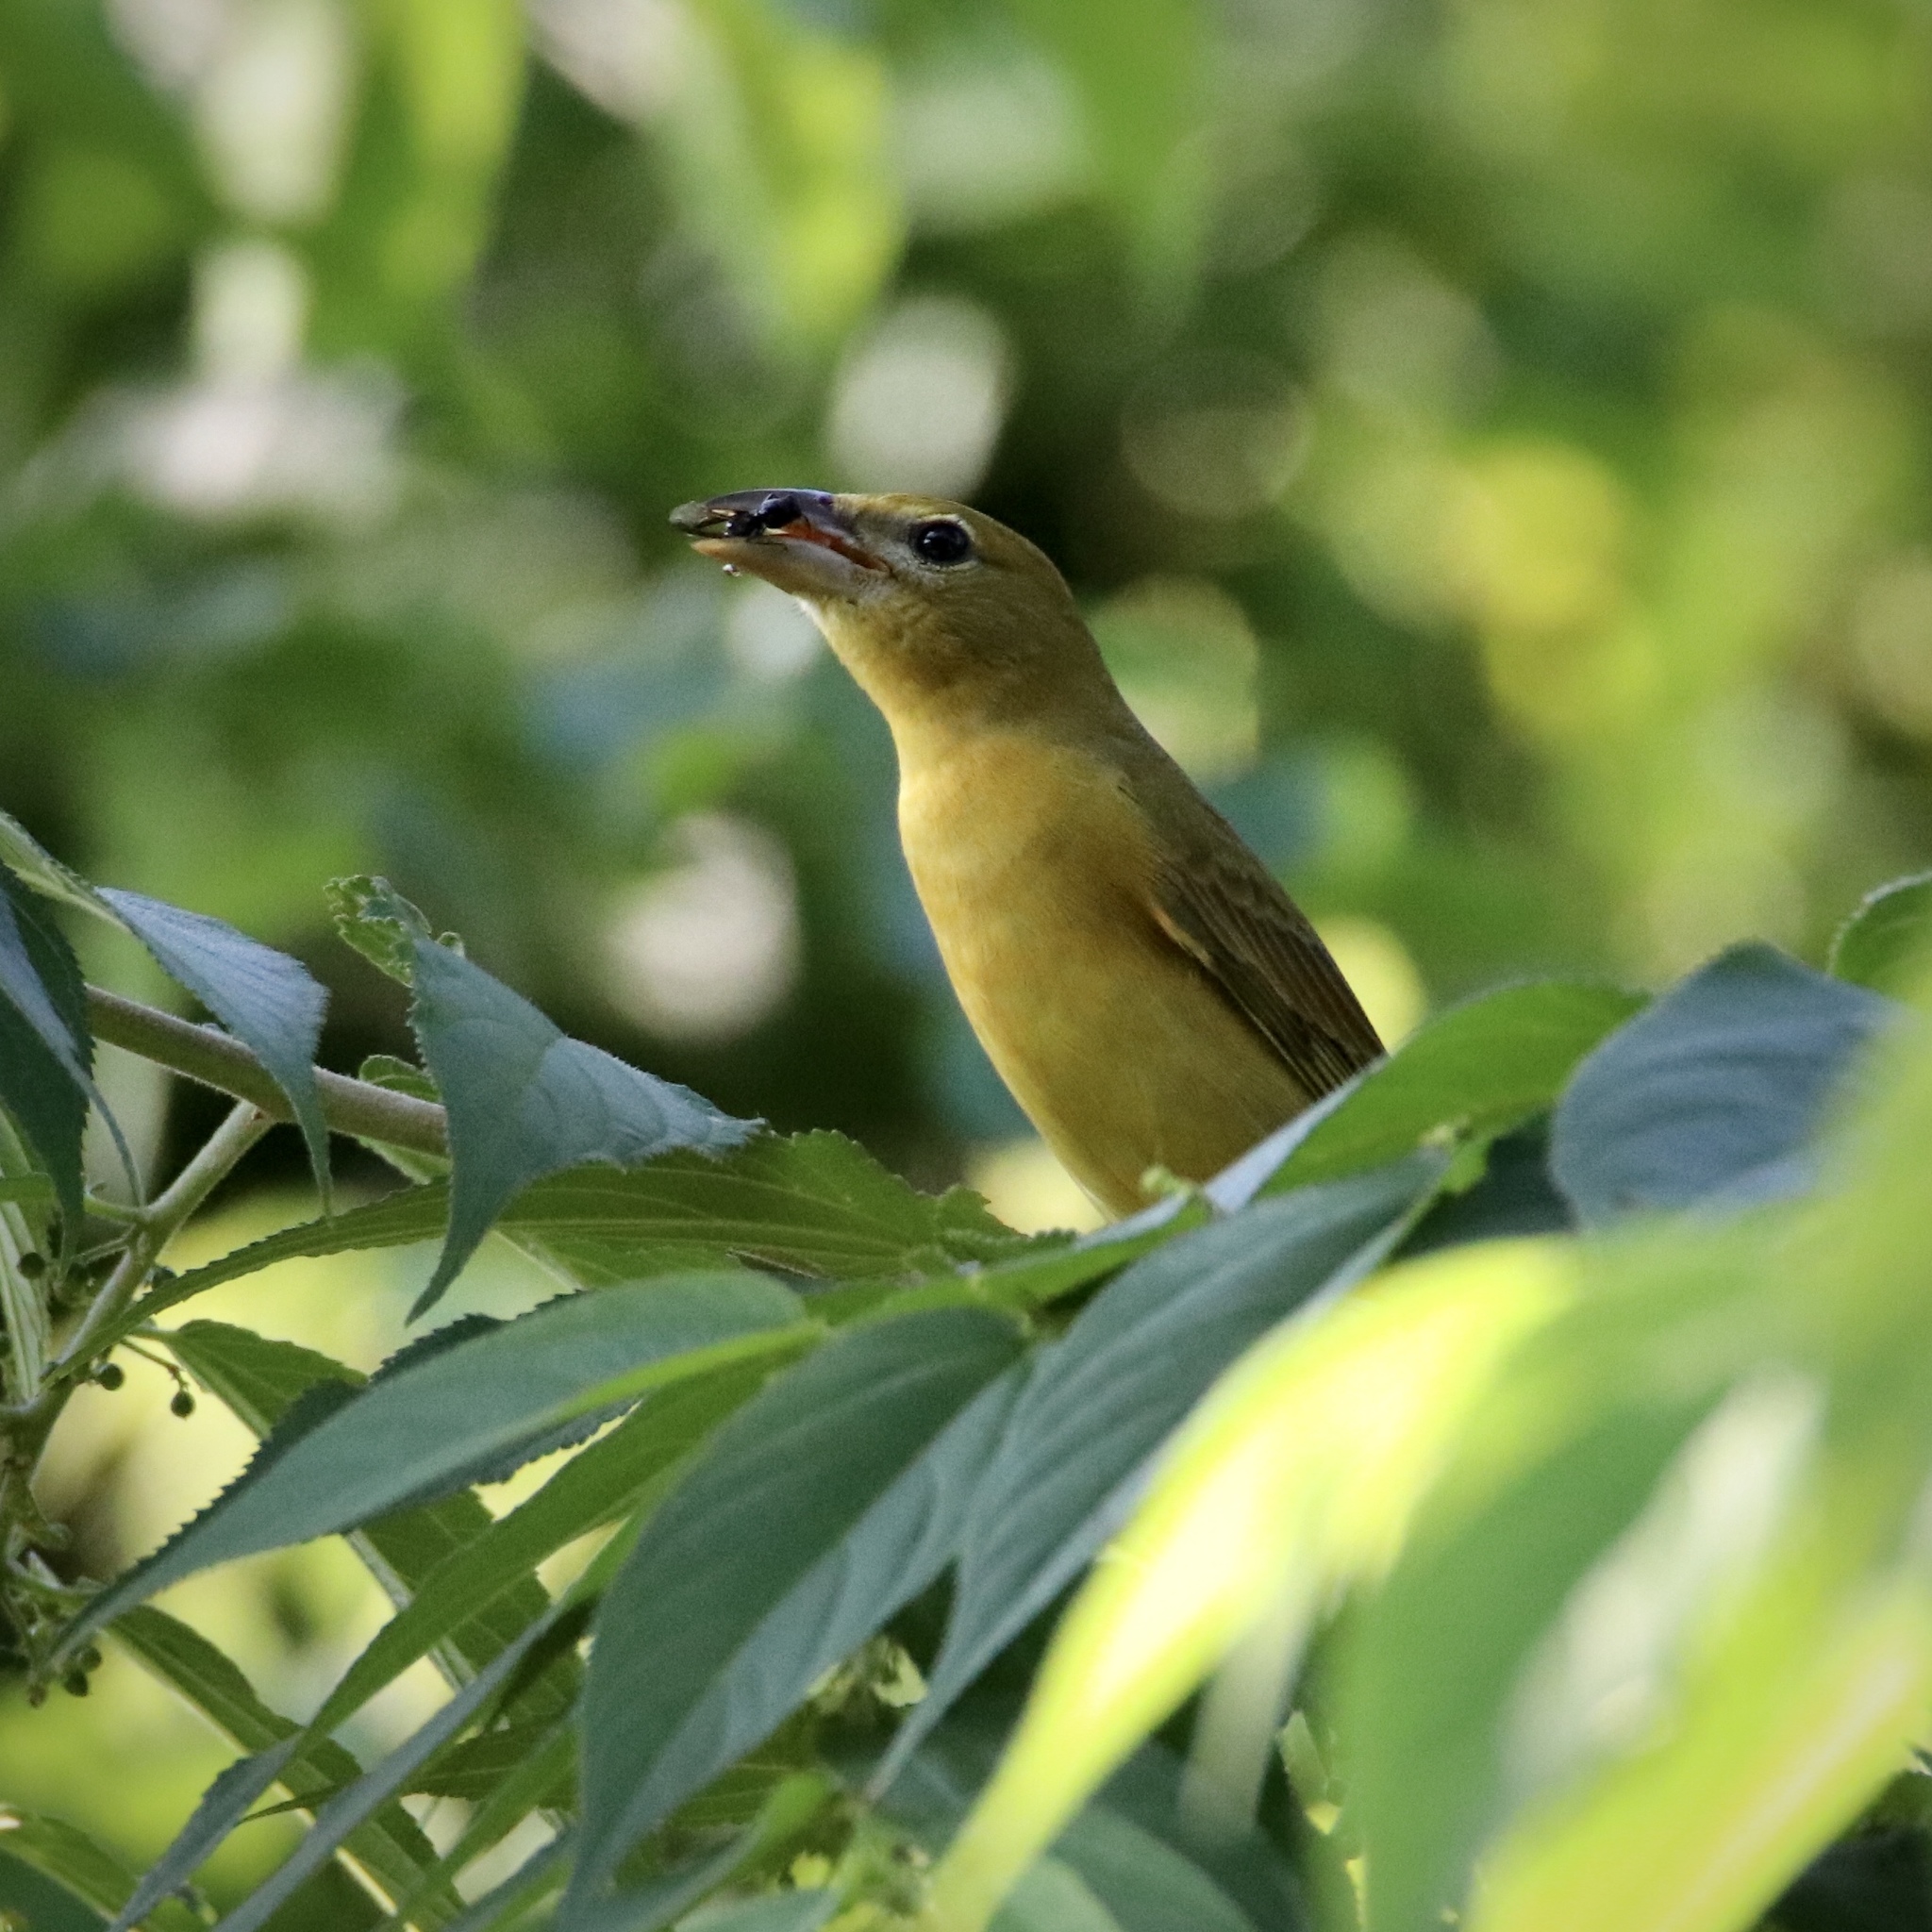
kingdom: Animalia
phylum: Chordata
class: Aves
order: Passeriformes
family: Cardinalidae
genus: Piranga
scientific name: Piranga rubra
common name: Summer tanager
